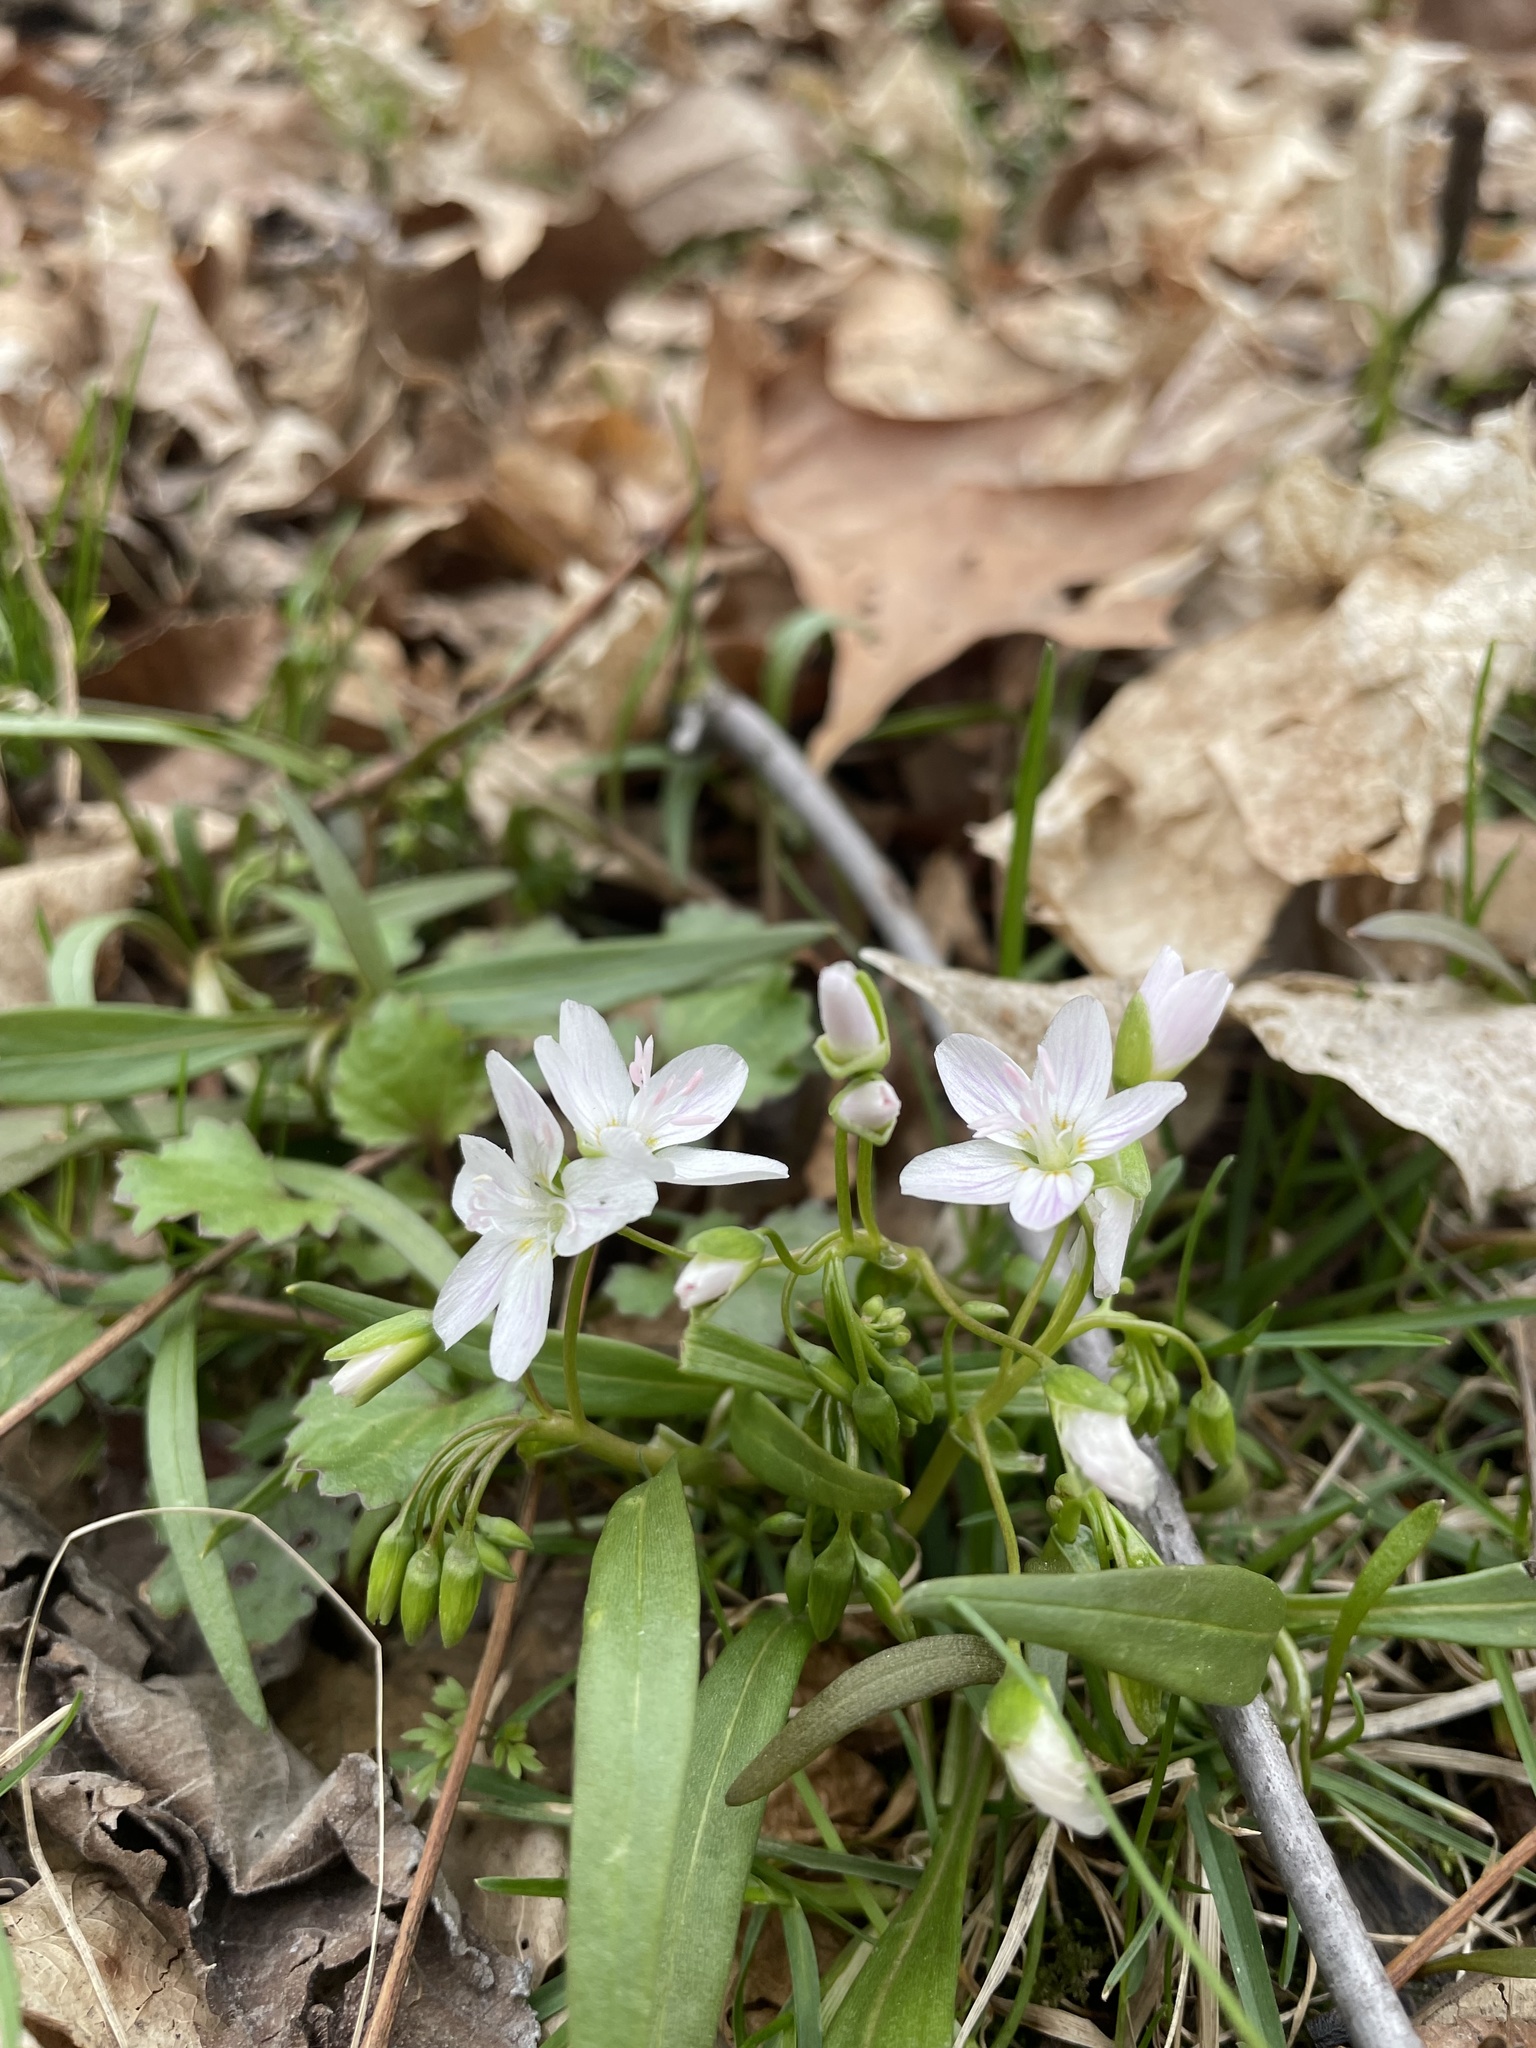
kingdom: Plantae
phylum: Tracheophyta
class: Magnoliopsida
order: Caryophyllales
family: Montiaceae
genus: Claytonia
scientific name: Claytonia virginica
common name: Virginia springbeauty
